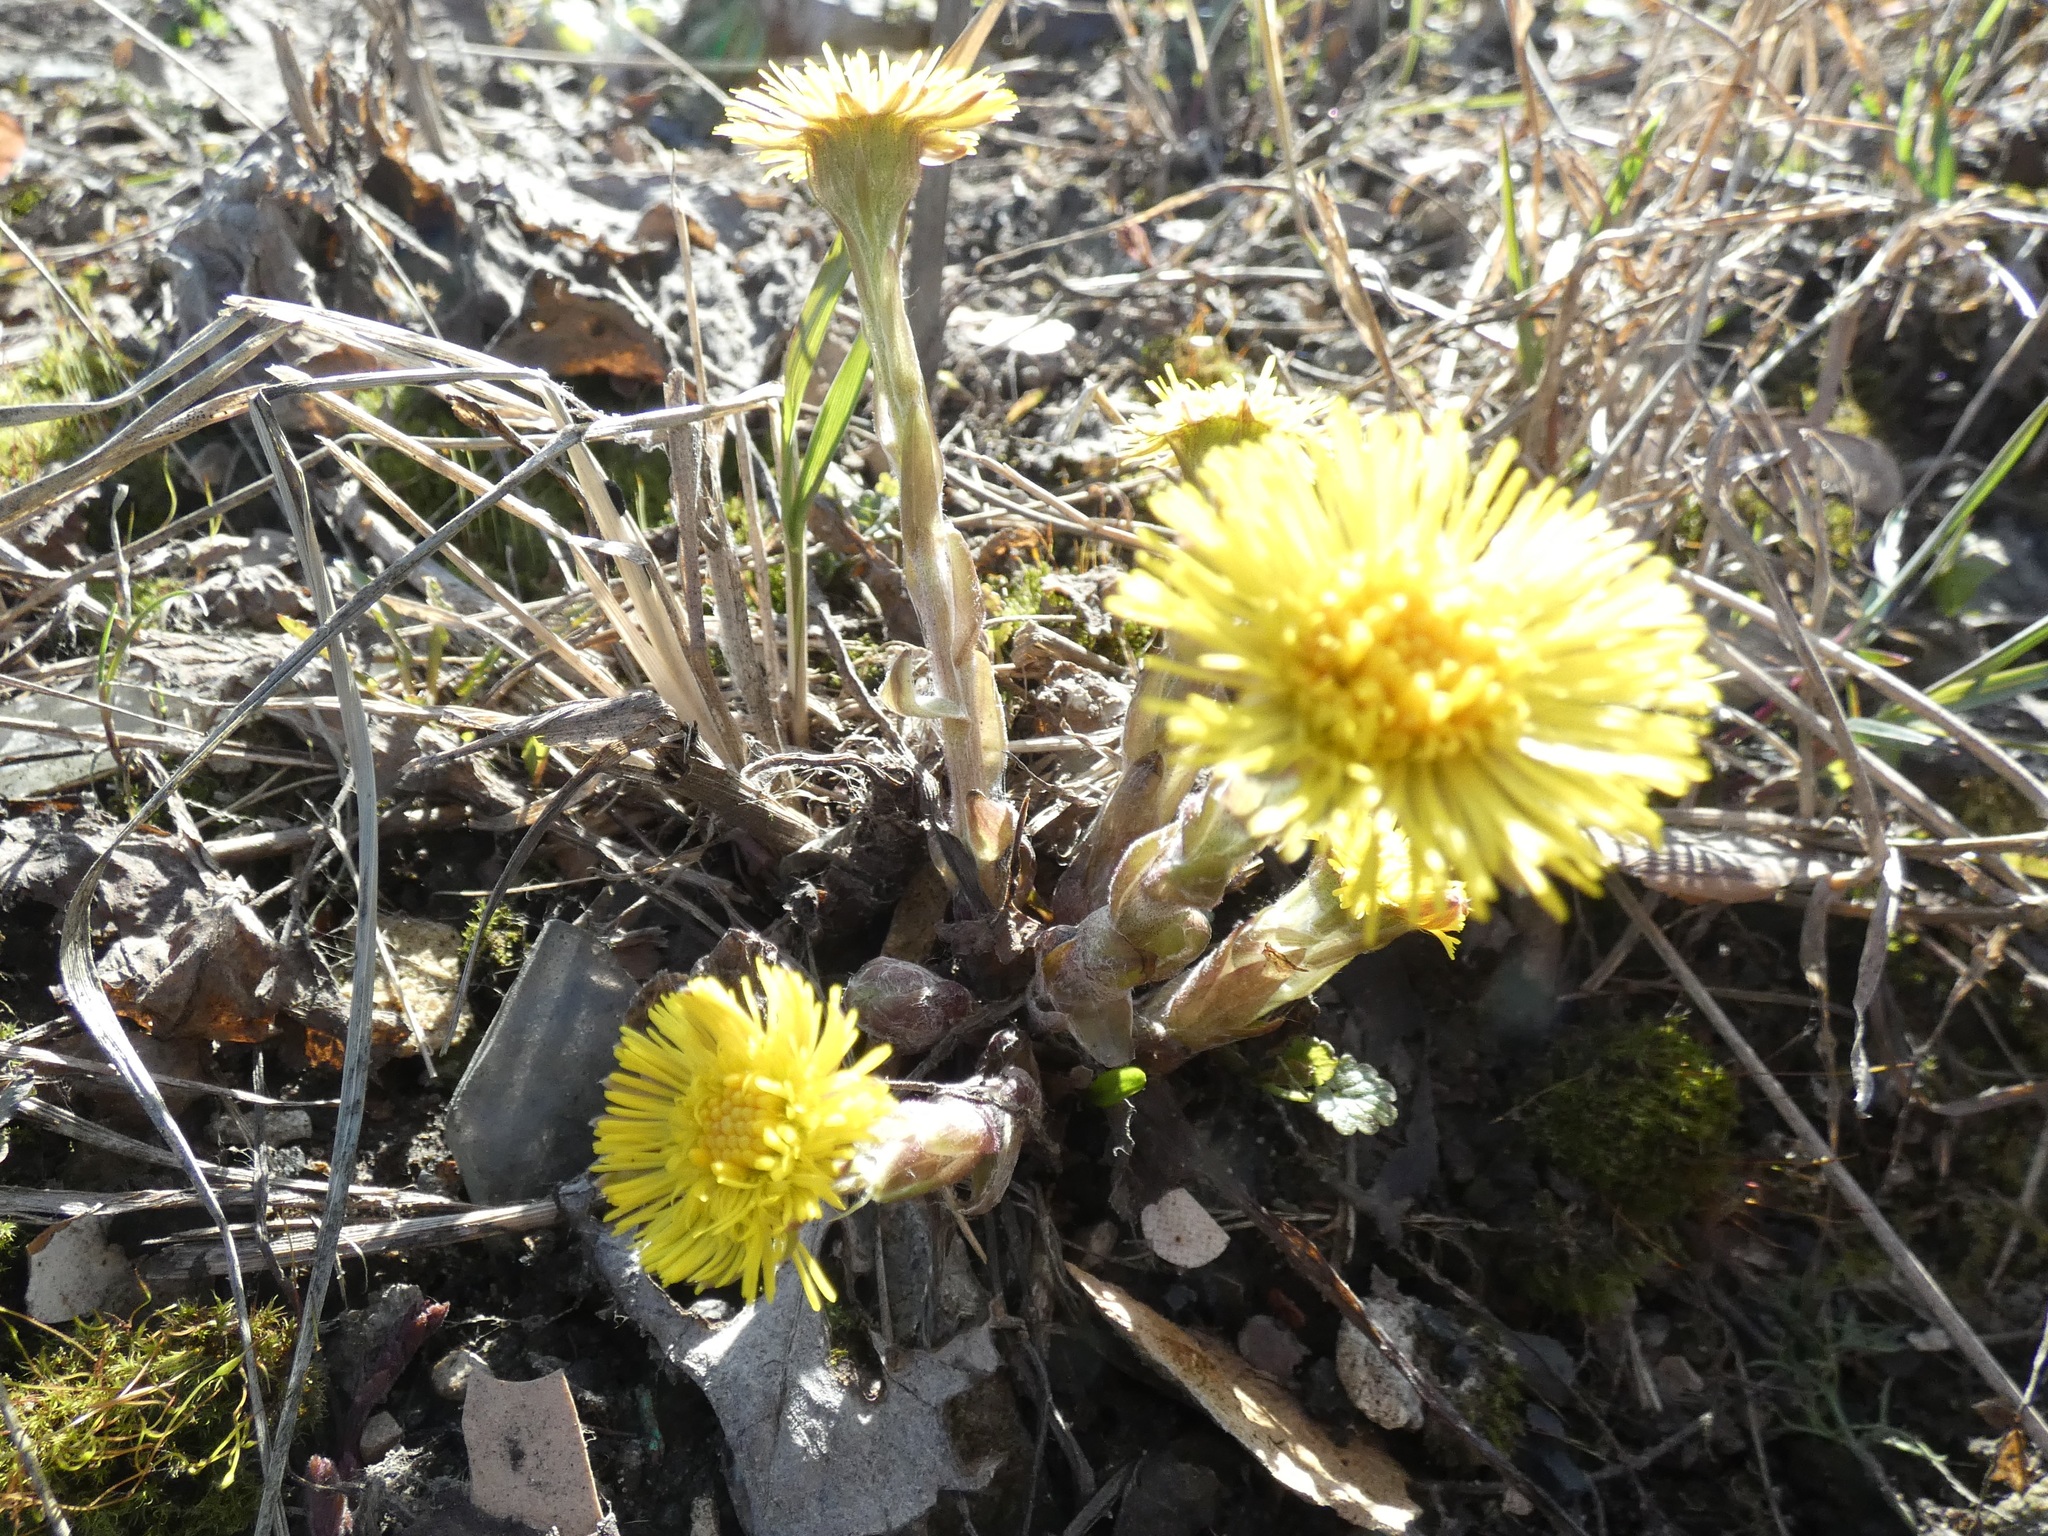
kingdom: Plantae
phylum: Tracheophyta
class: Magnoliopsida
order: Asterales
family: Asteraceae
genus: Tussilago
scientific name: Tussilago farfara
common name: Coltsfoot
